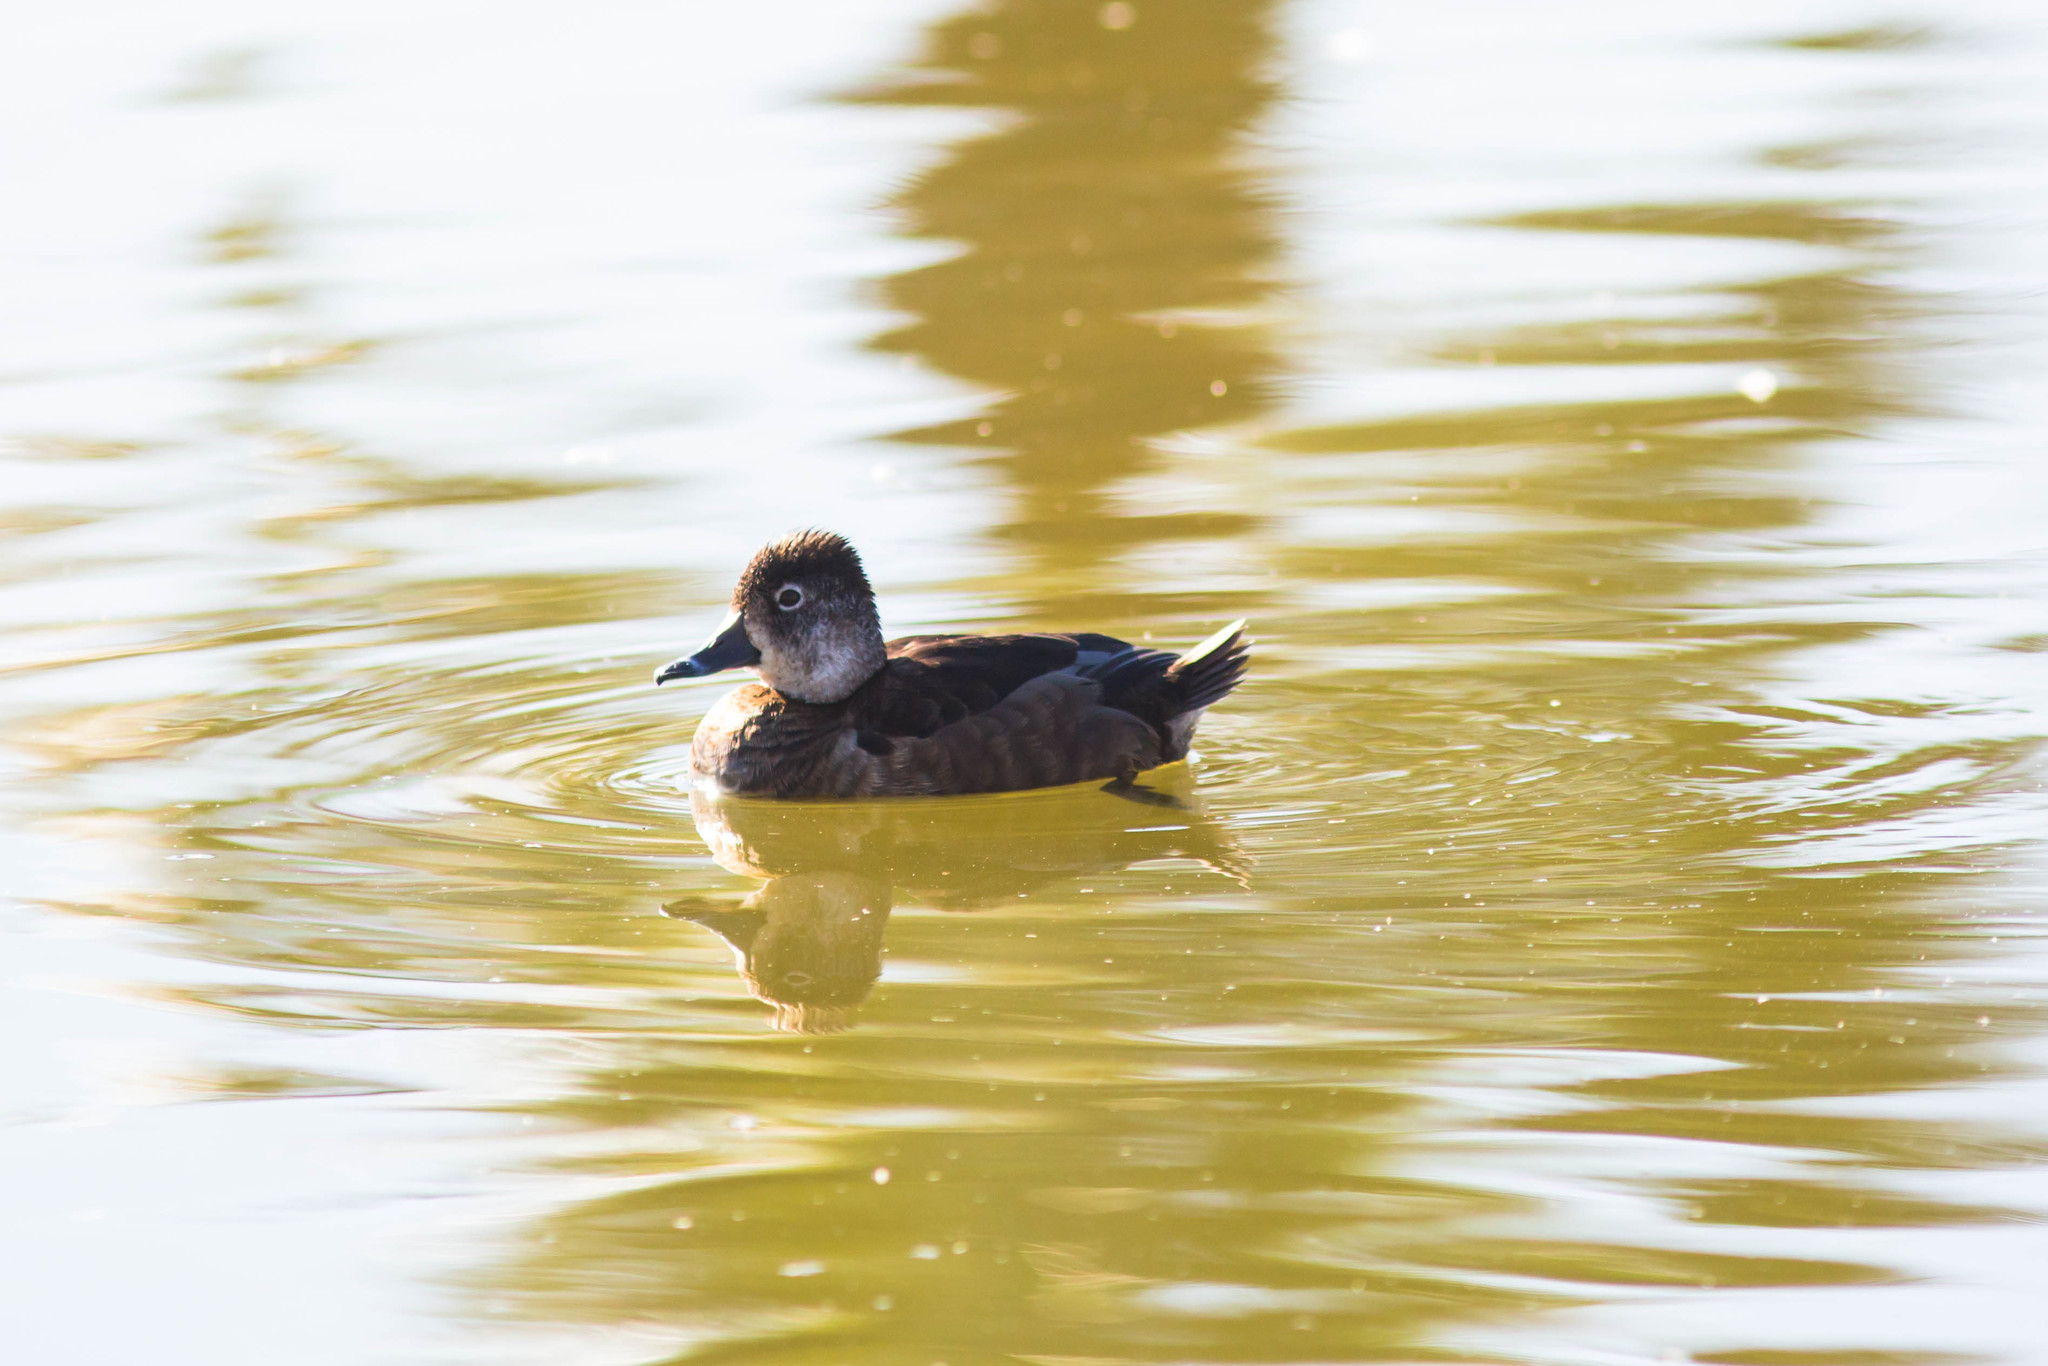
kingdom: Animalia
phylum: Chordata
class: Aves
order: Anseriformes
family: Anatidae
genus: Aythya
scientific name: Aythya collaris
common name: Ring-necked duck
